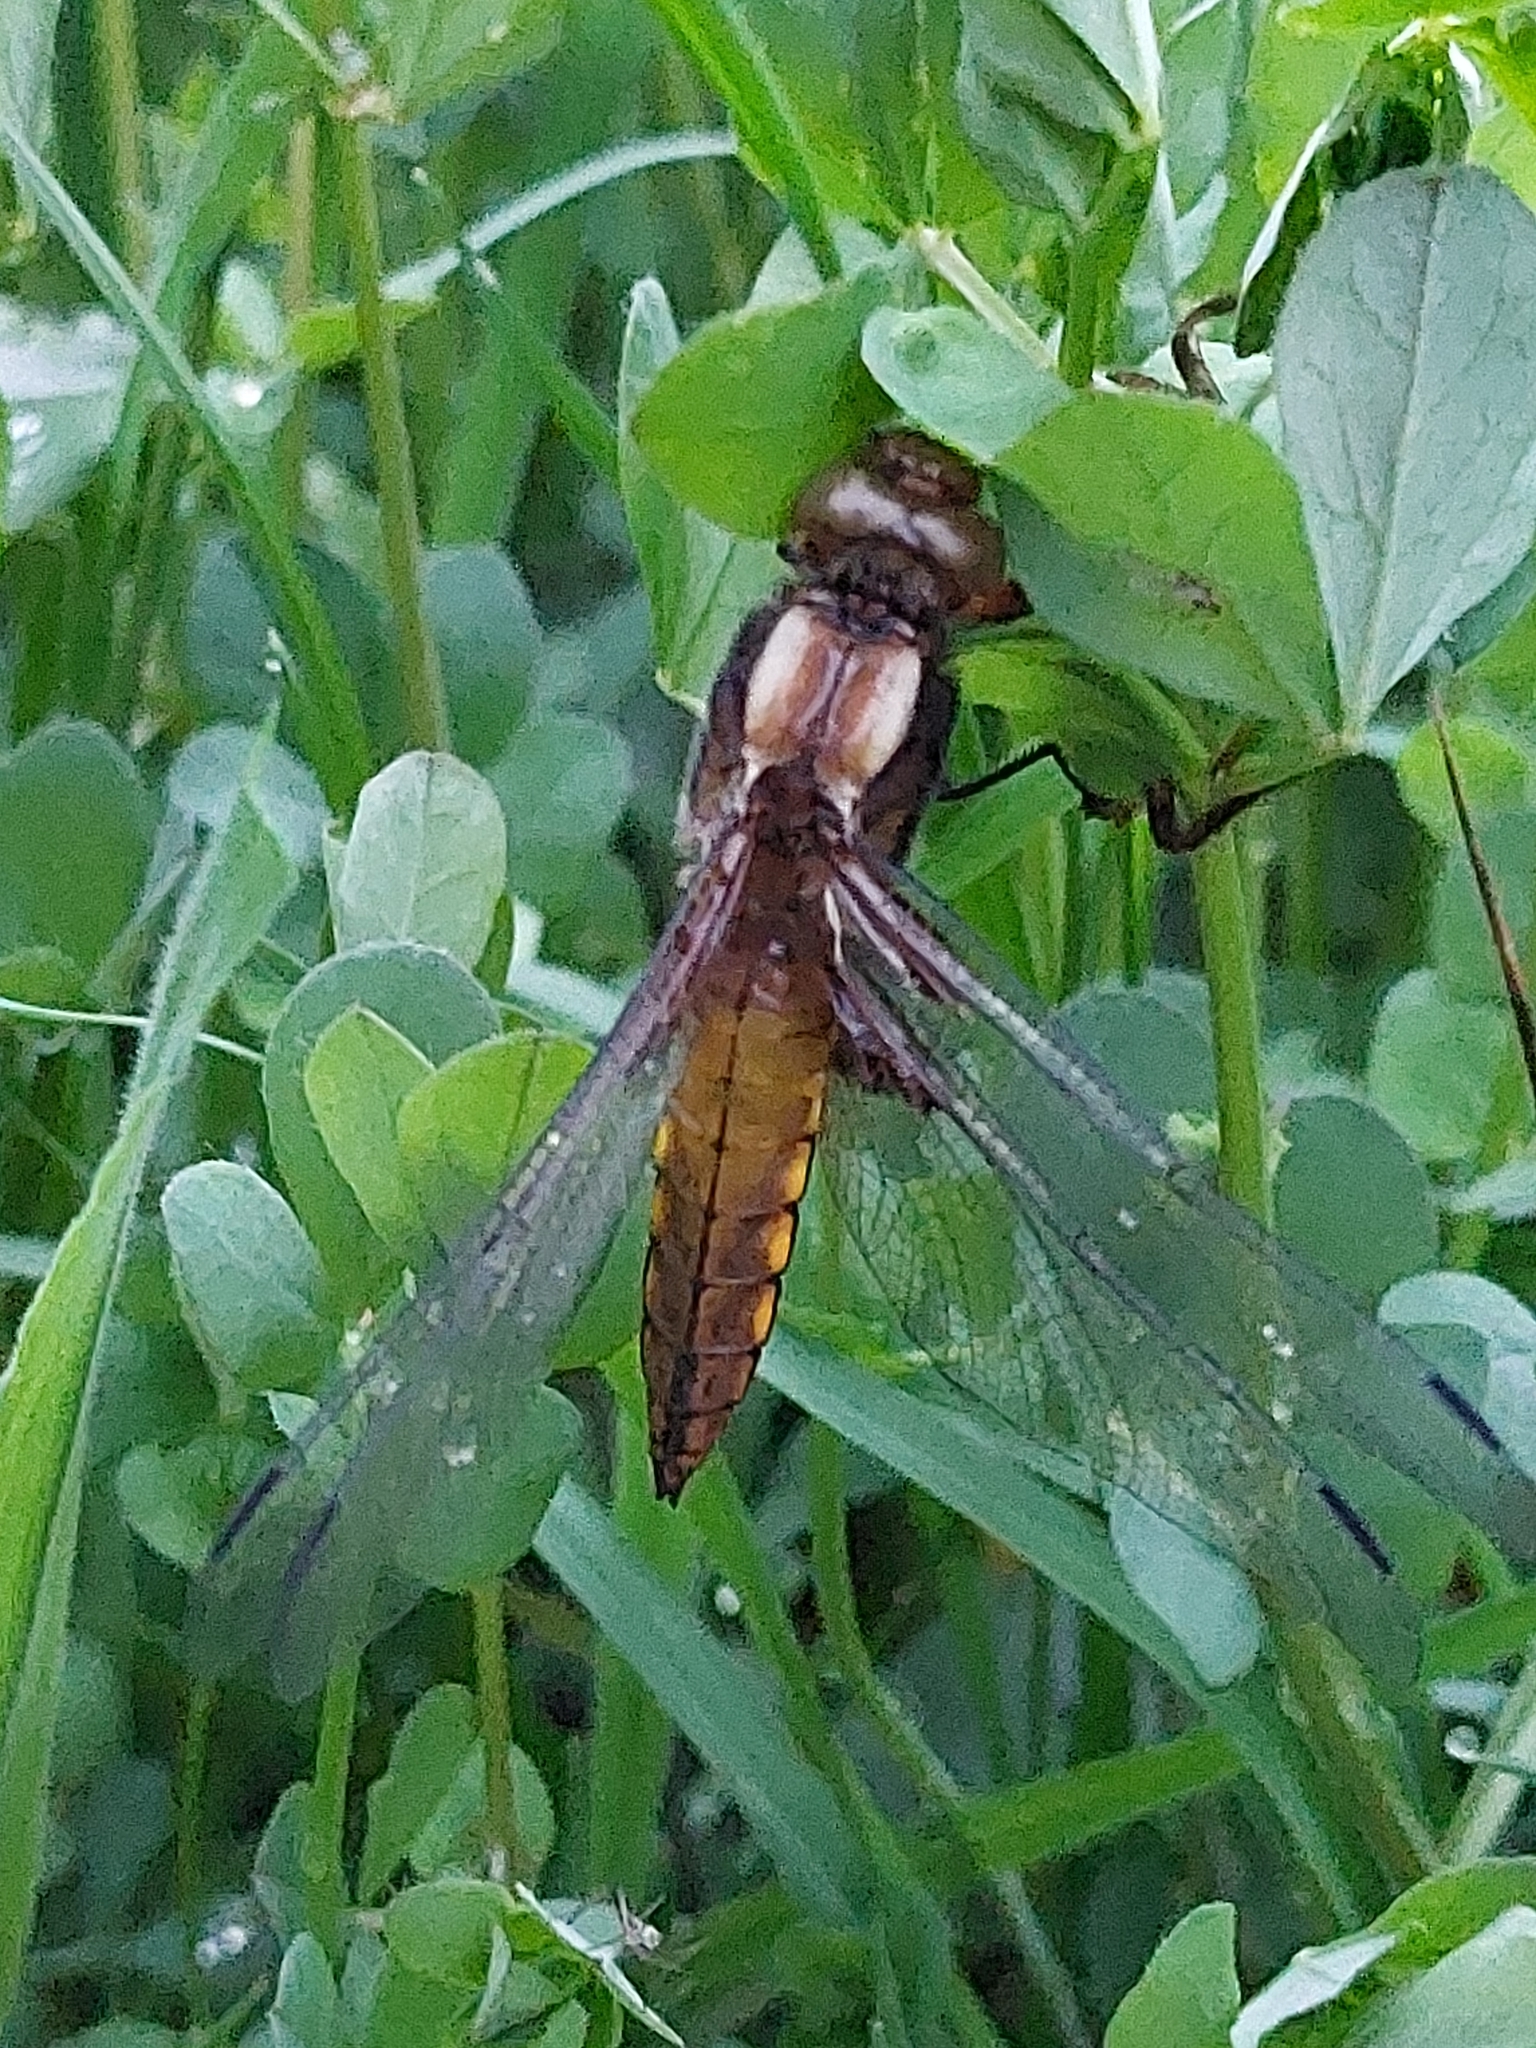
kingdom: Animalia
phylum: Arthropoda
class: Insecta
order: Odonata
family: Libellulidae
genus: Libellula
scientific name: Libellula depressa
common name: Broad-bodied chaser
